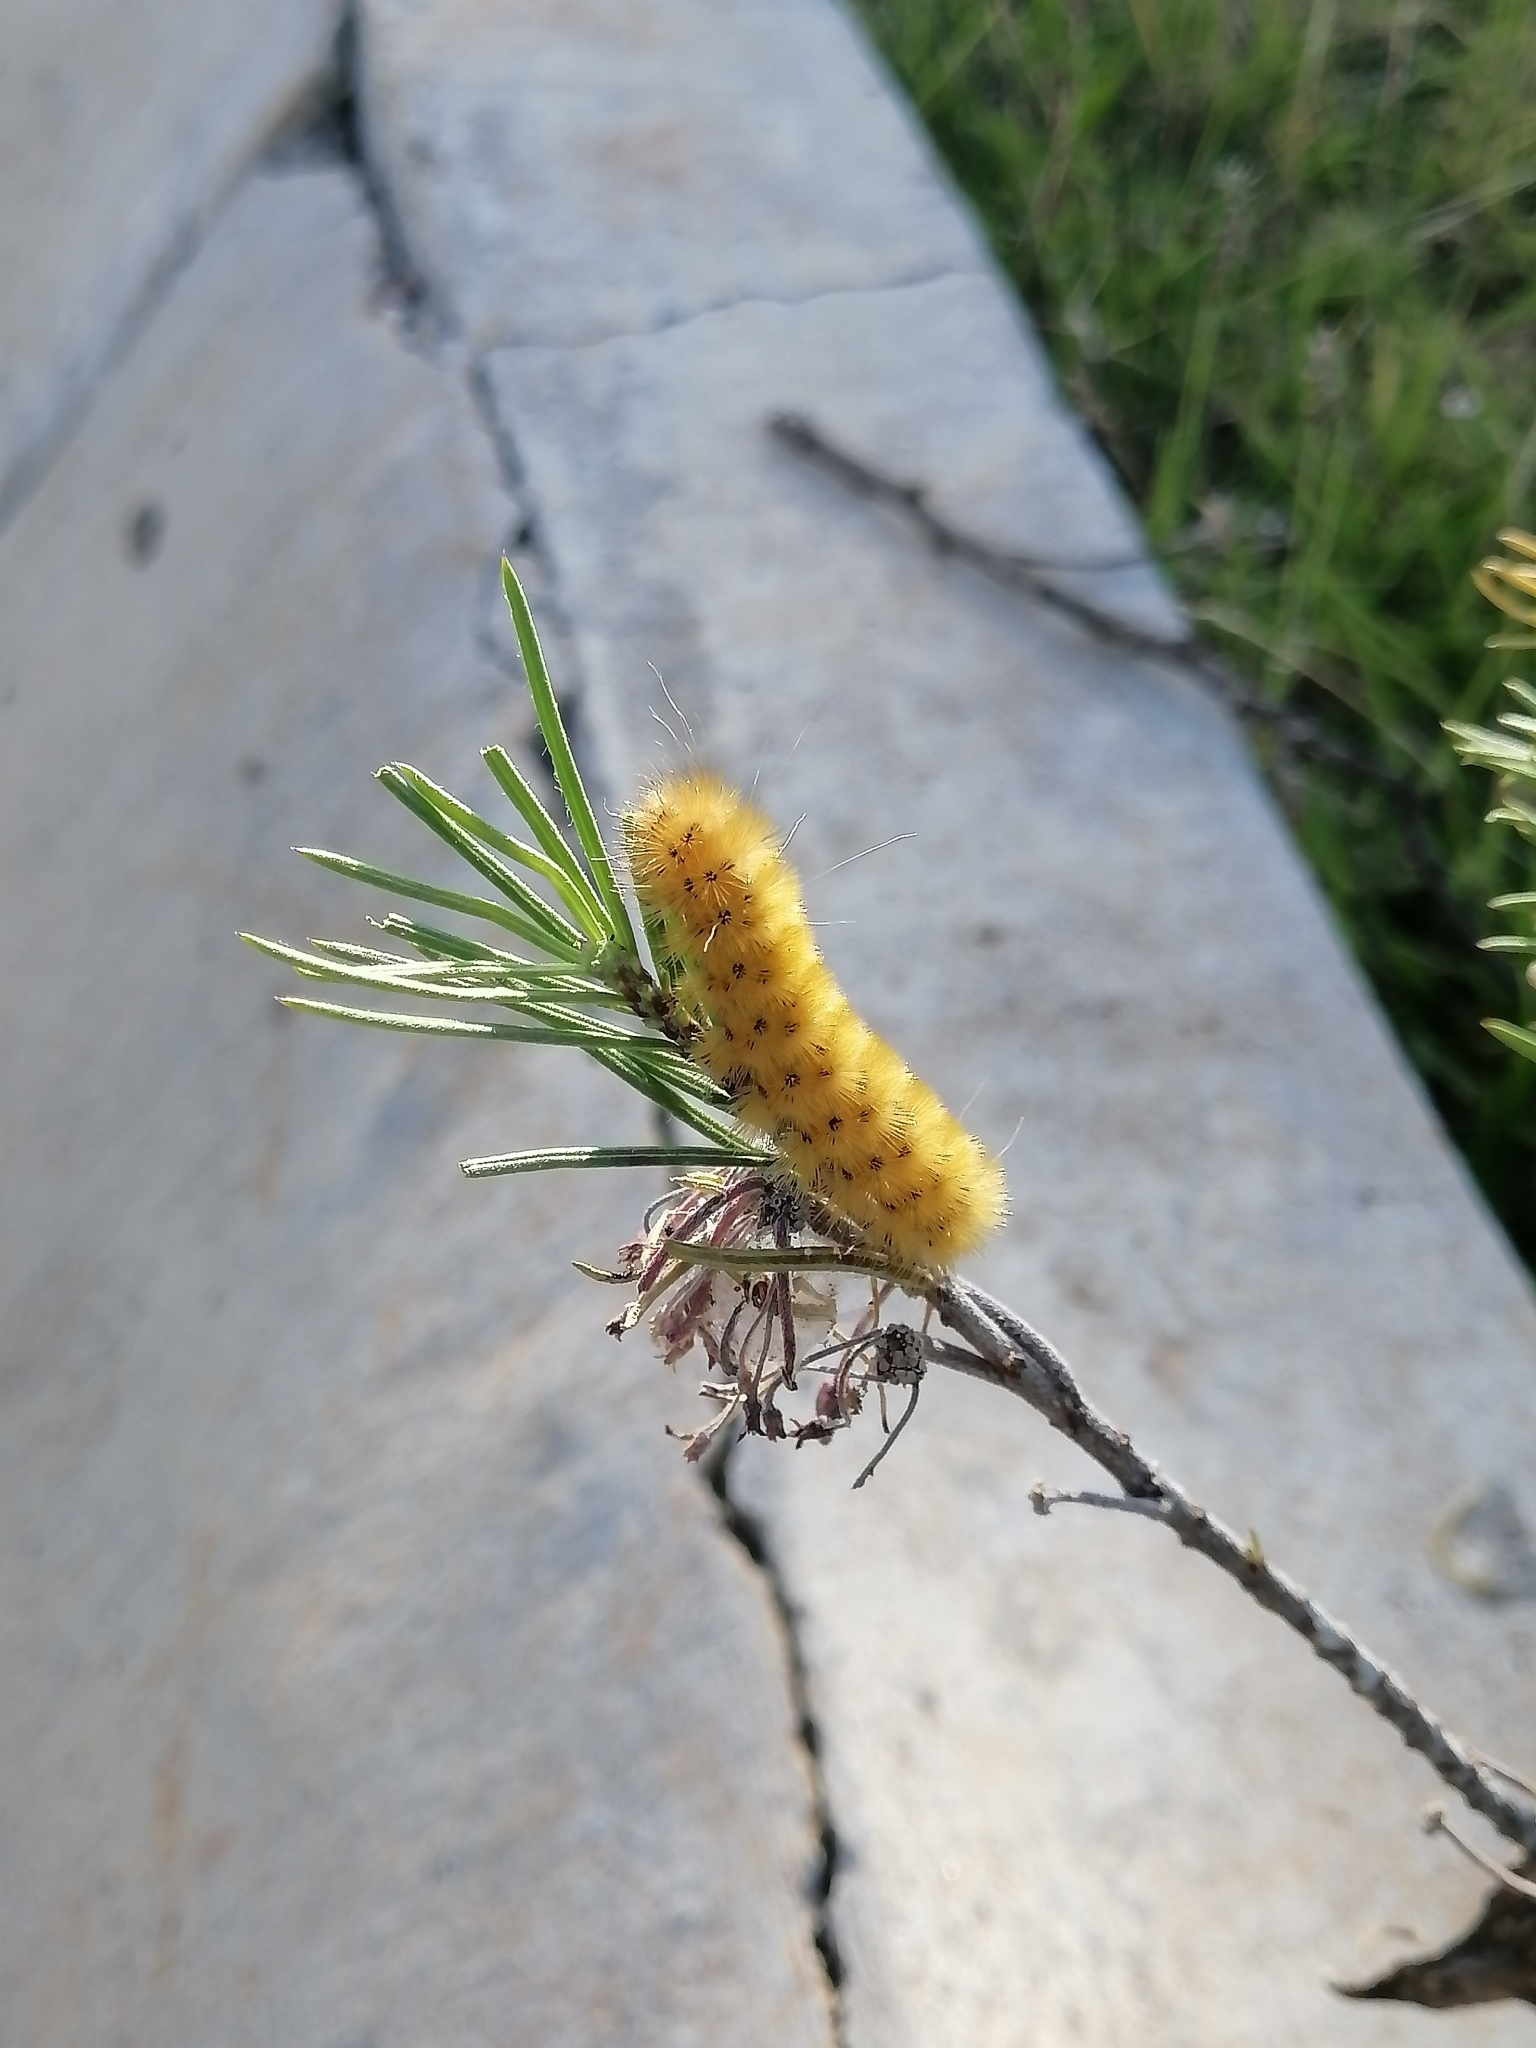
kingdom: Animalia
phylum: Arthropoda
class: Insecta
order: Lepidoptera
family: Erebidae
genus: Lerina
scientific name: Lerina incarnata
